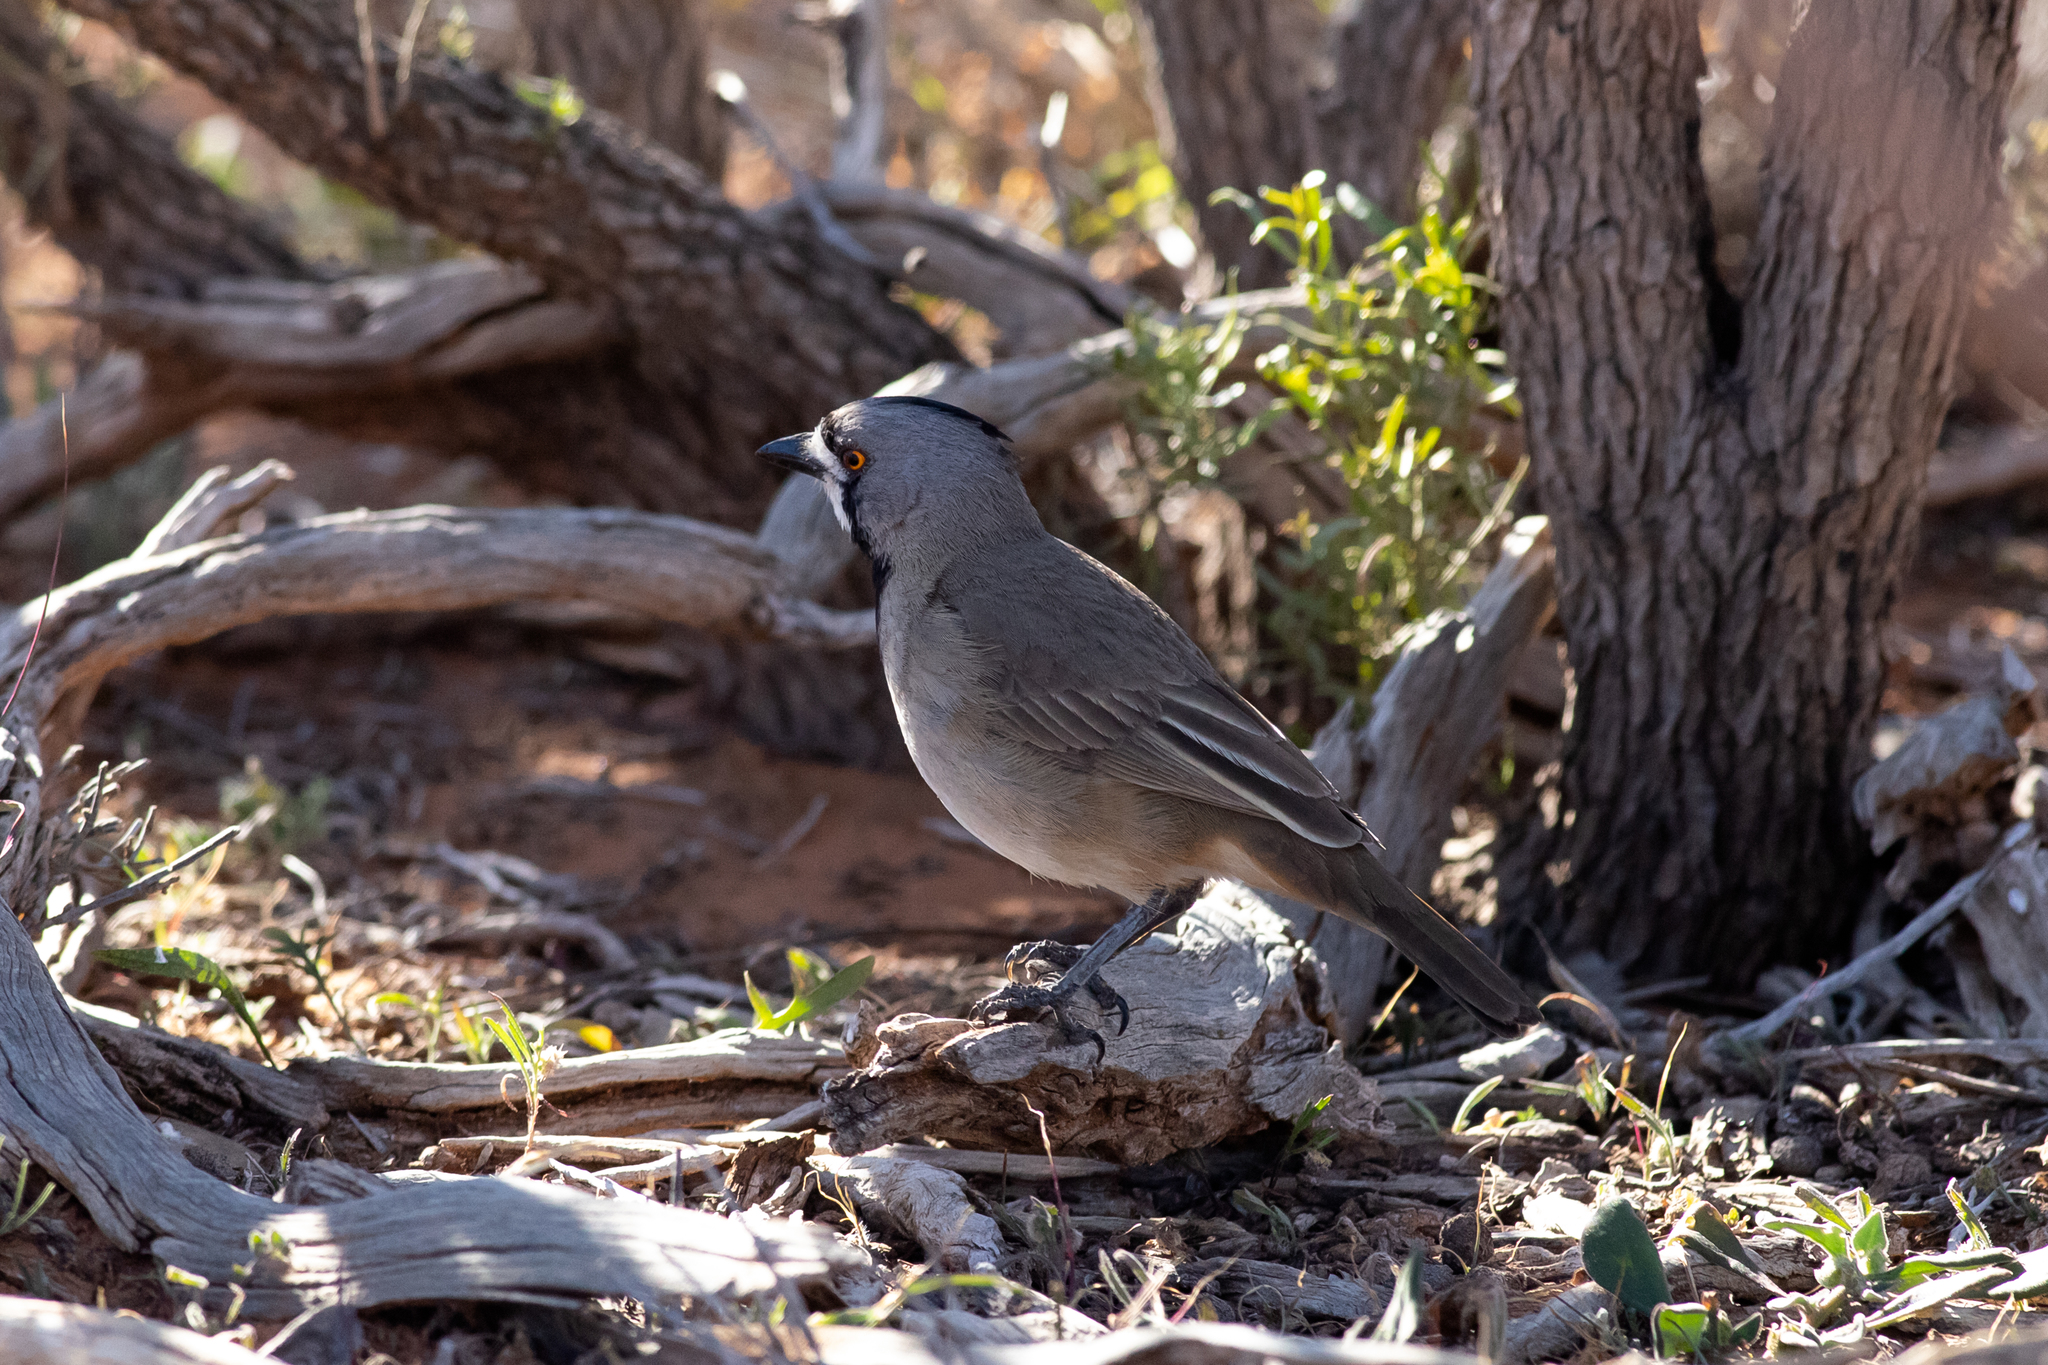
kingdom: Animalia
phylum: Chordata
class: Aves
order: Passeriformes
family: Oreoicidae
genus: Oreoica
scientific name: Oreoica gutturalis
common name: Crested bellbird
